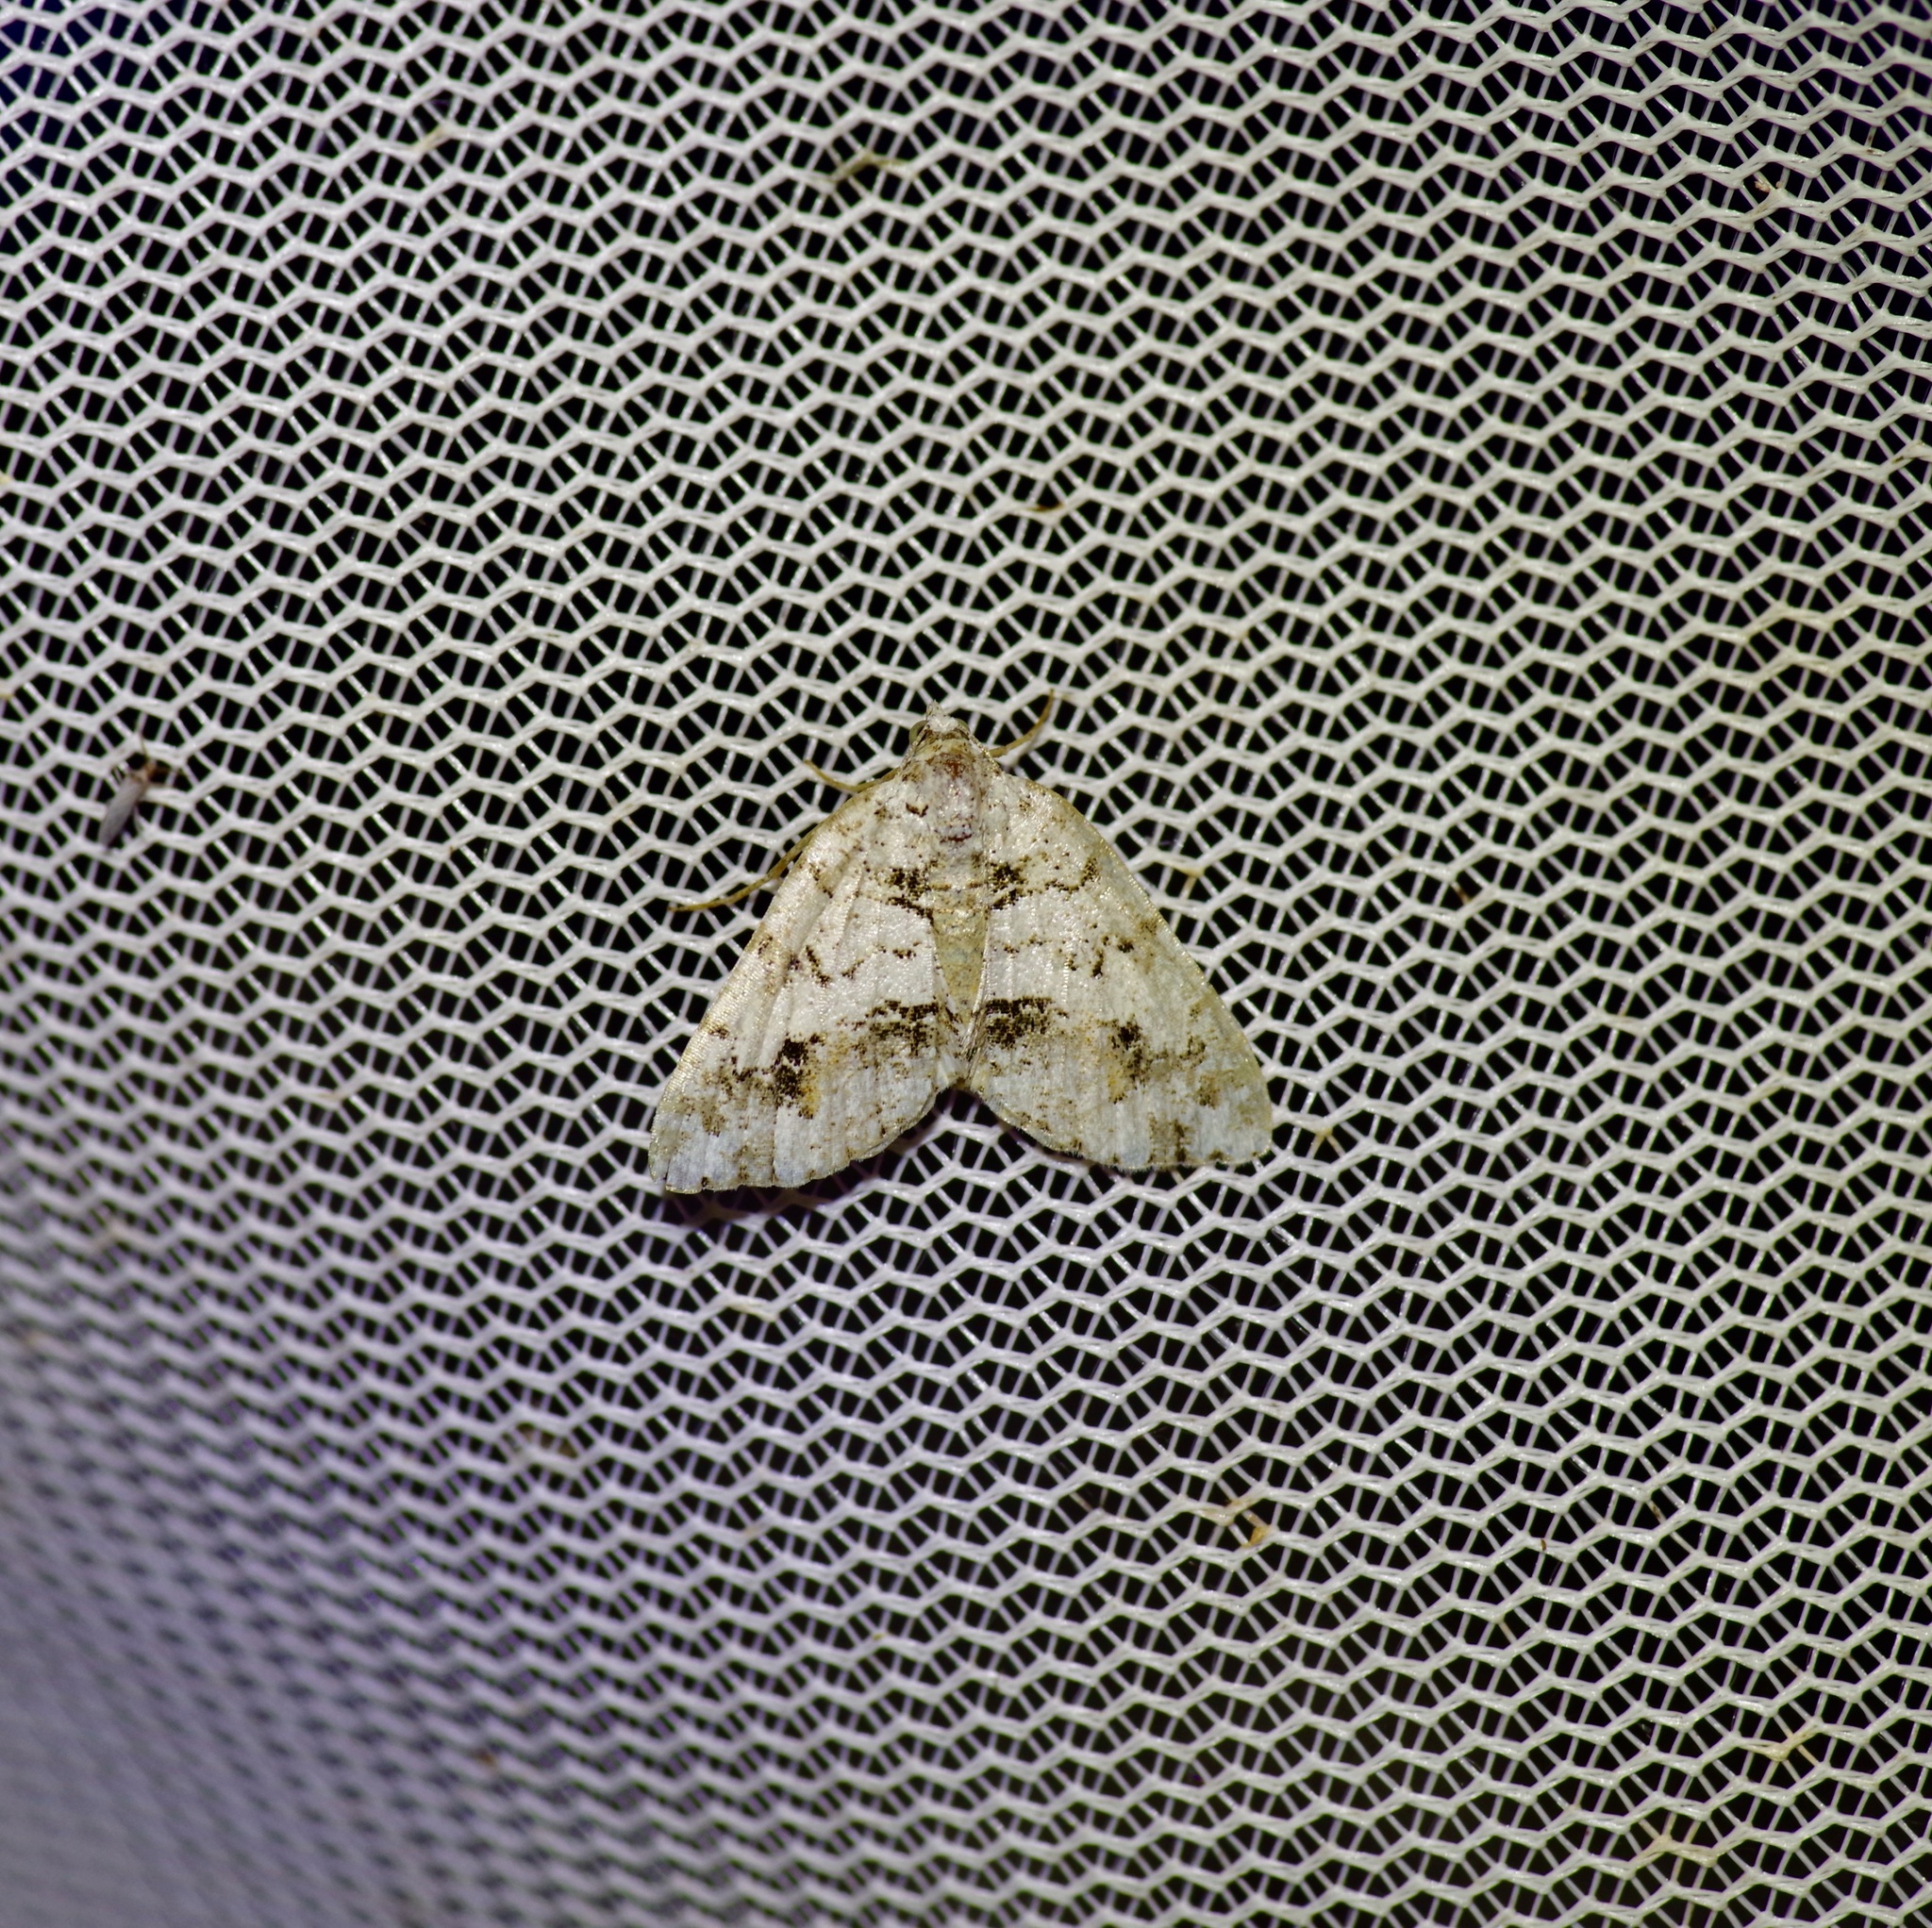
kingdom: Animalia
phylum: Arthropoda
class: Insecta
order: Lepidoptera
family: Geometridae
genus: Macaria
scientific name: Macaria graphidaria
